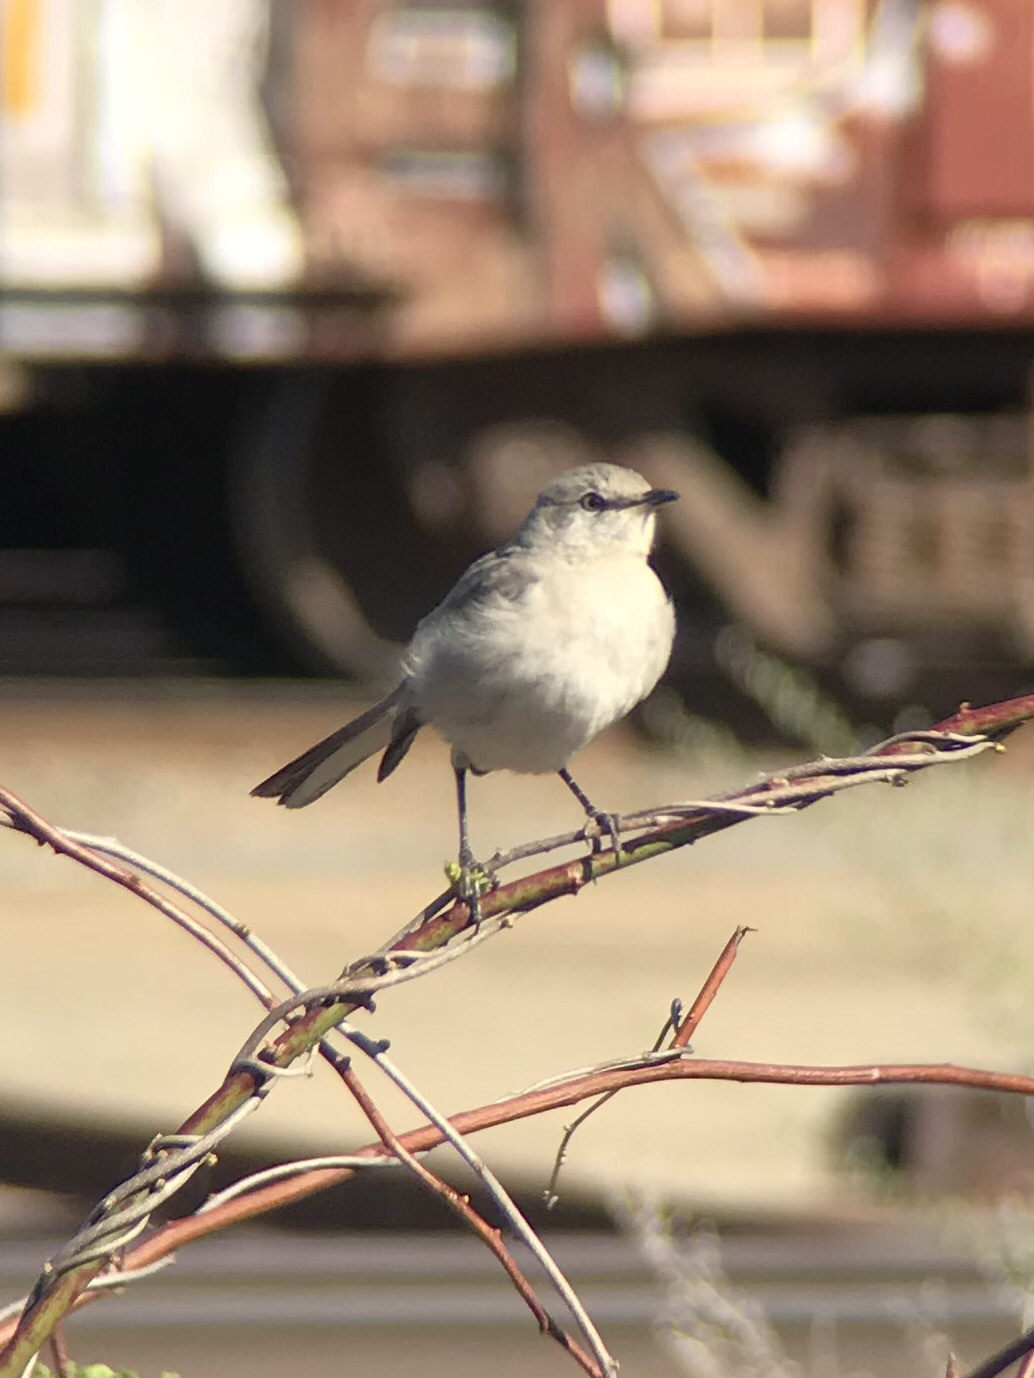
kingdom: Animalia
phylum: Chordata
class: Aves
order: Passeriformes
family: Mimidae
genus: Mimus
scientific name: Mimus polyglottos
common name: Northern mockingbird
